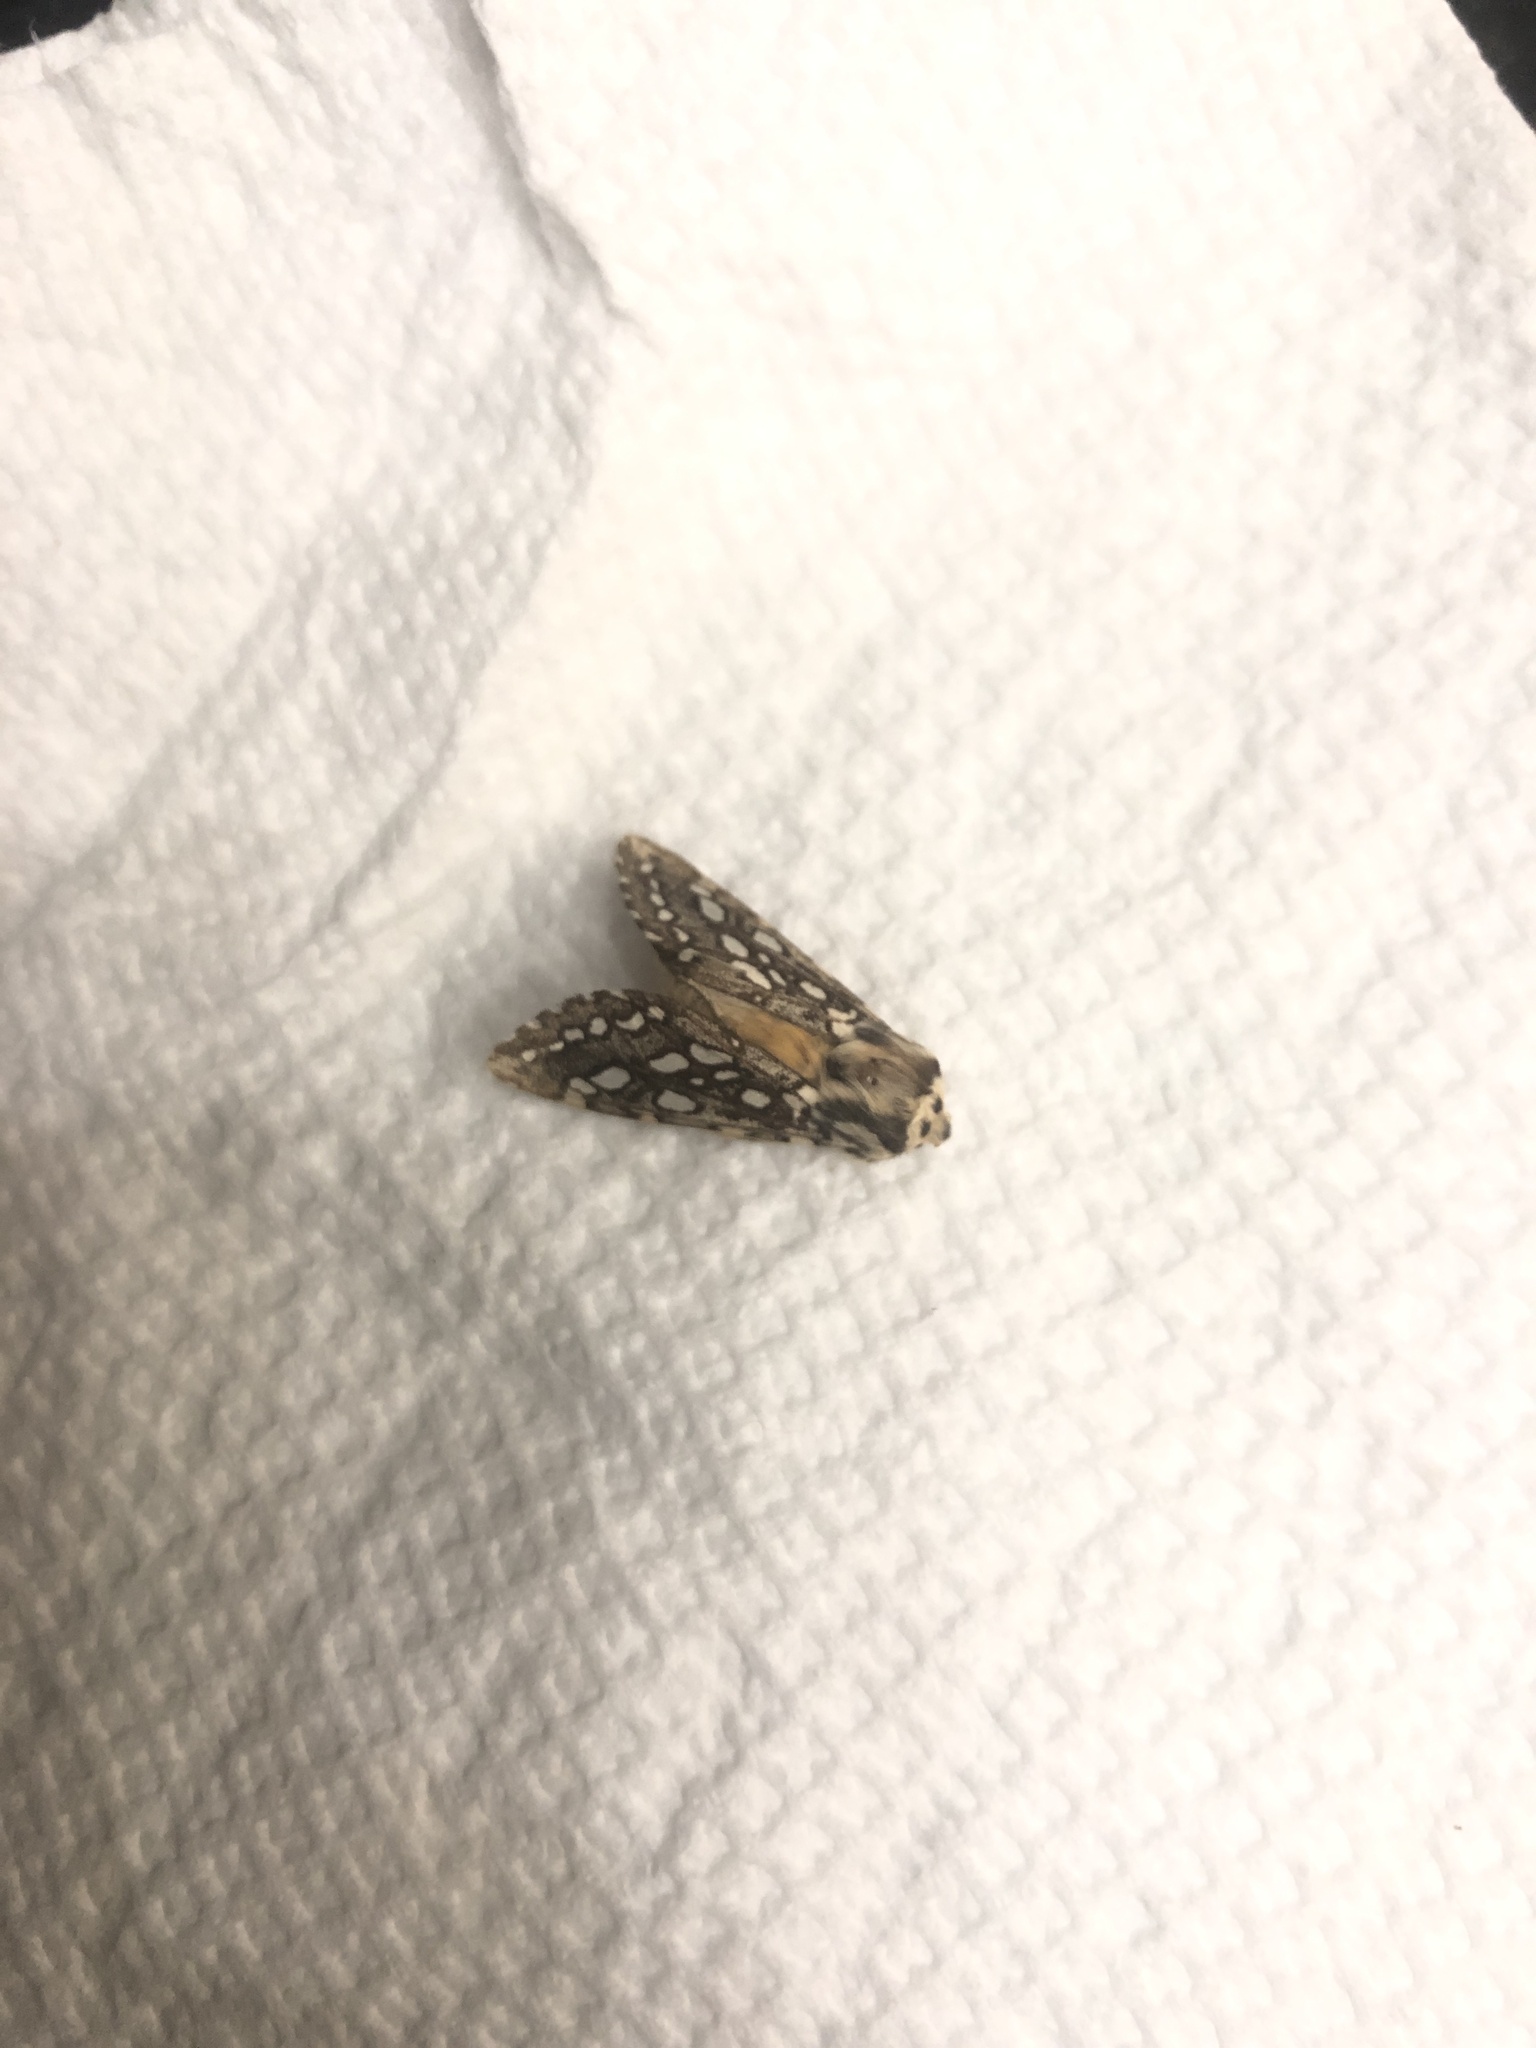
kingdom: Animalia
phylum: Arthropoda
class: Insecta
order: Lepidoptera
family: Erebidae
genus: Lophocampa
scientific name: Lophocampa argentata
